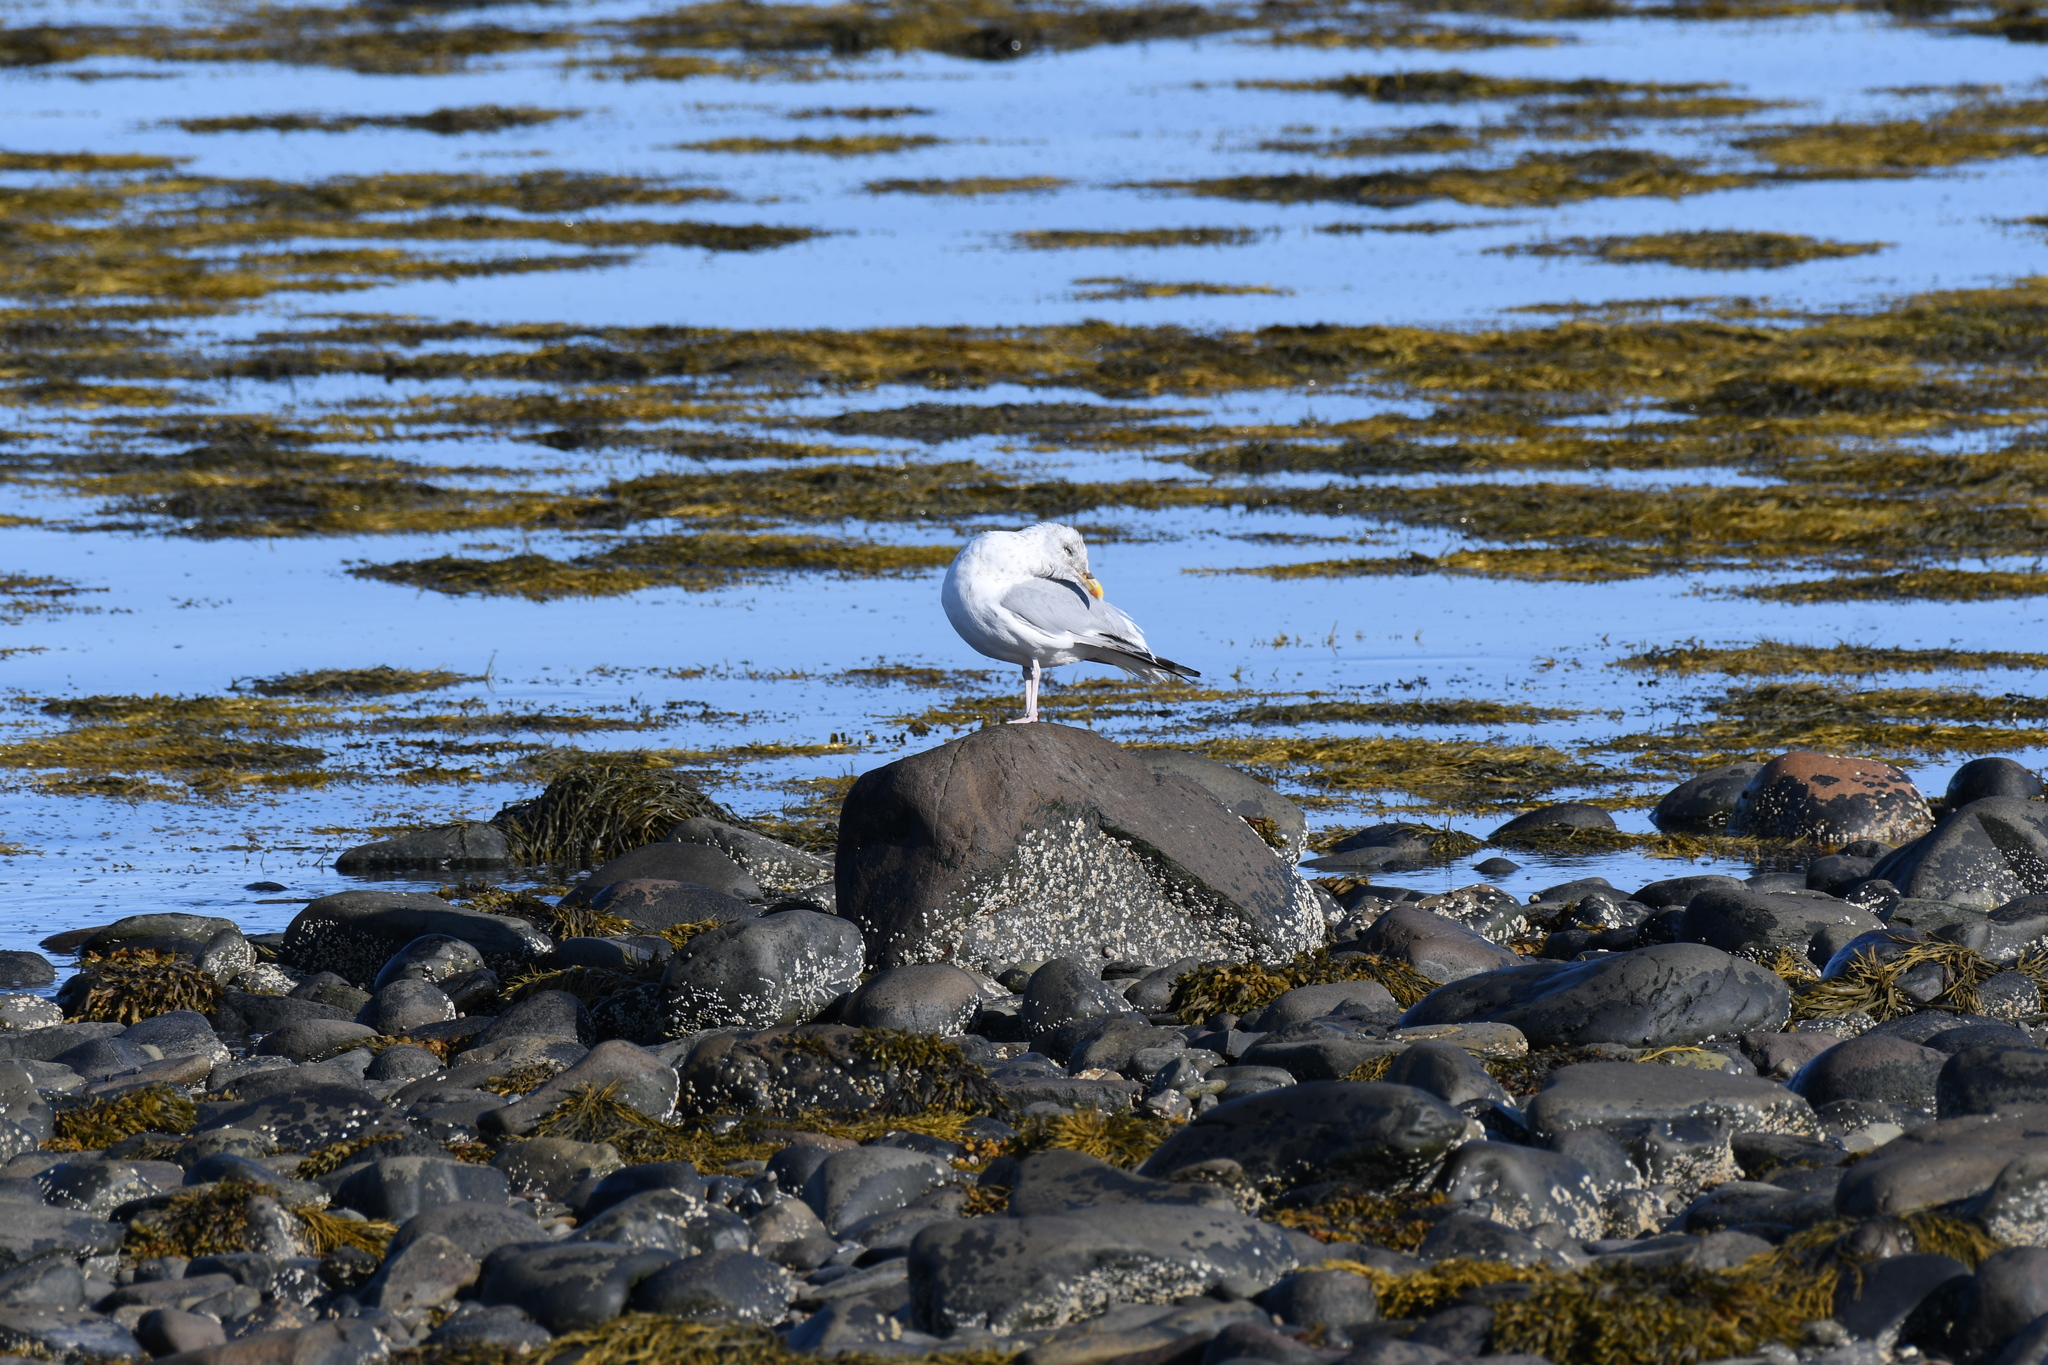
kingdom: Animalia
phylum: Chordata
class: Aves
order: Charadriiformes
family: Laridae
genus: Larus
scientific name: Larus argentatus
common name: Herring gull
